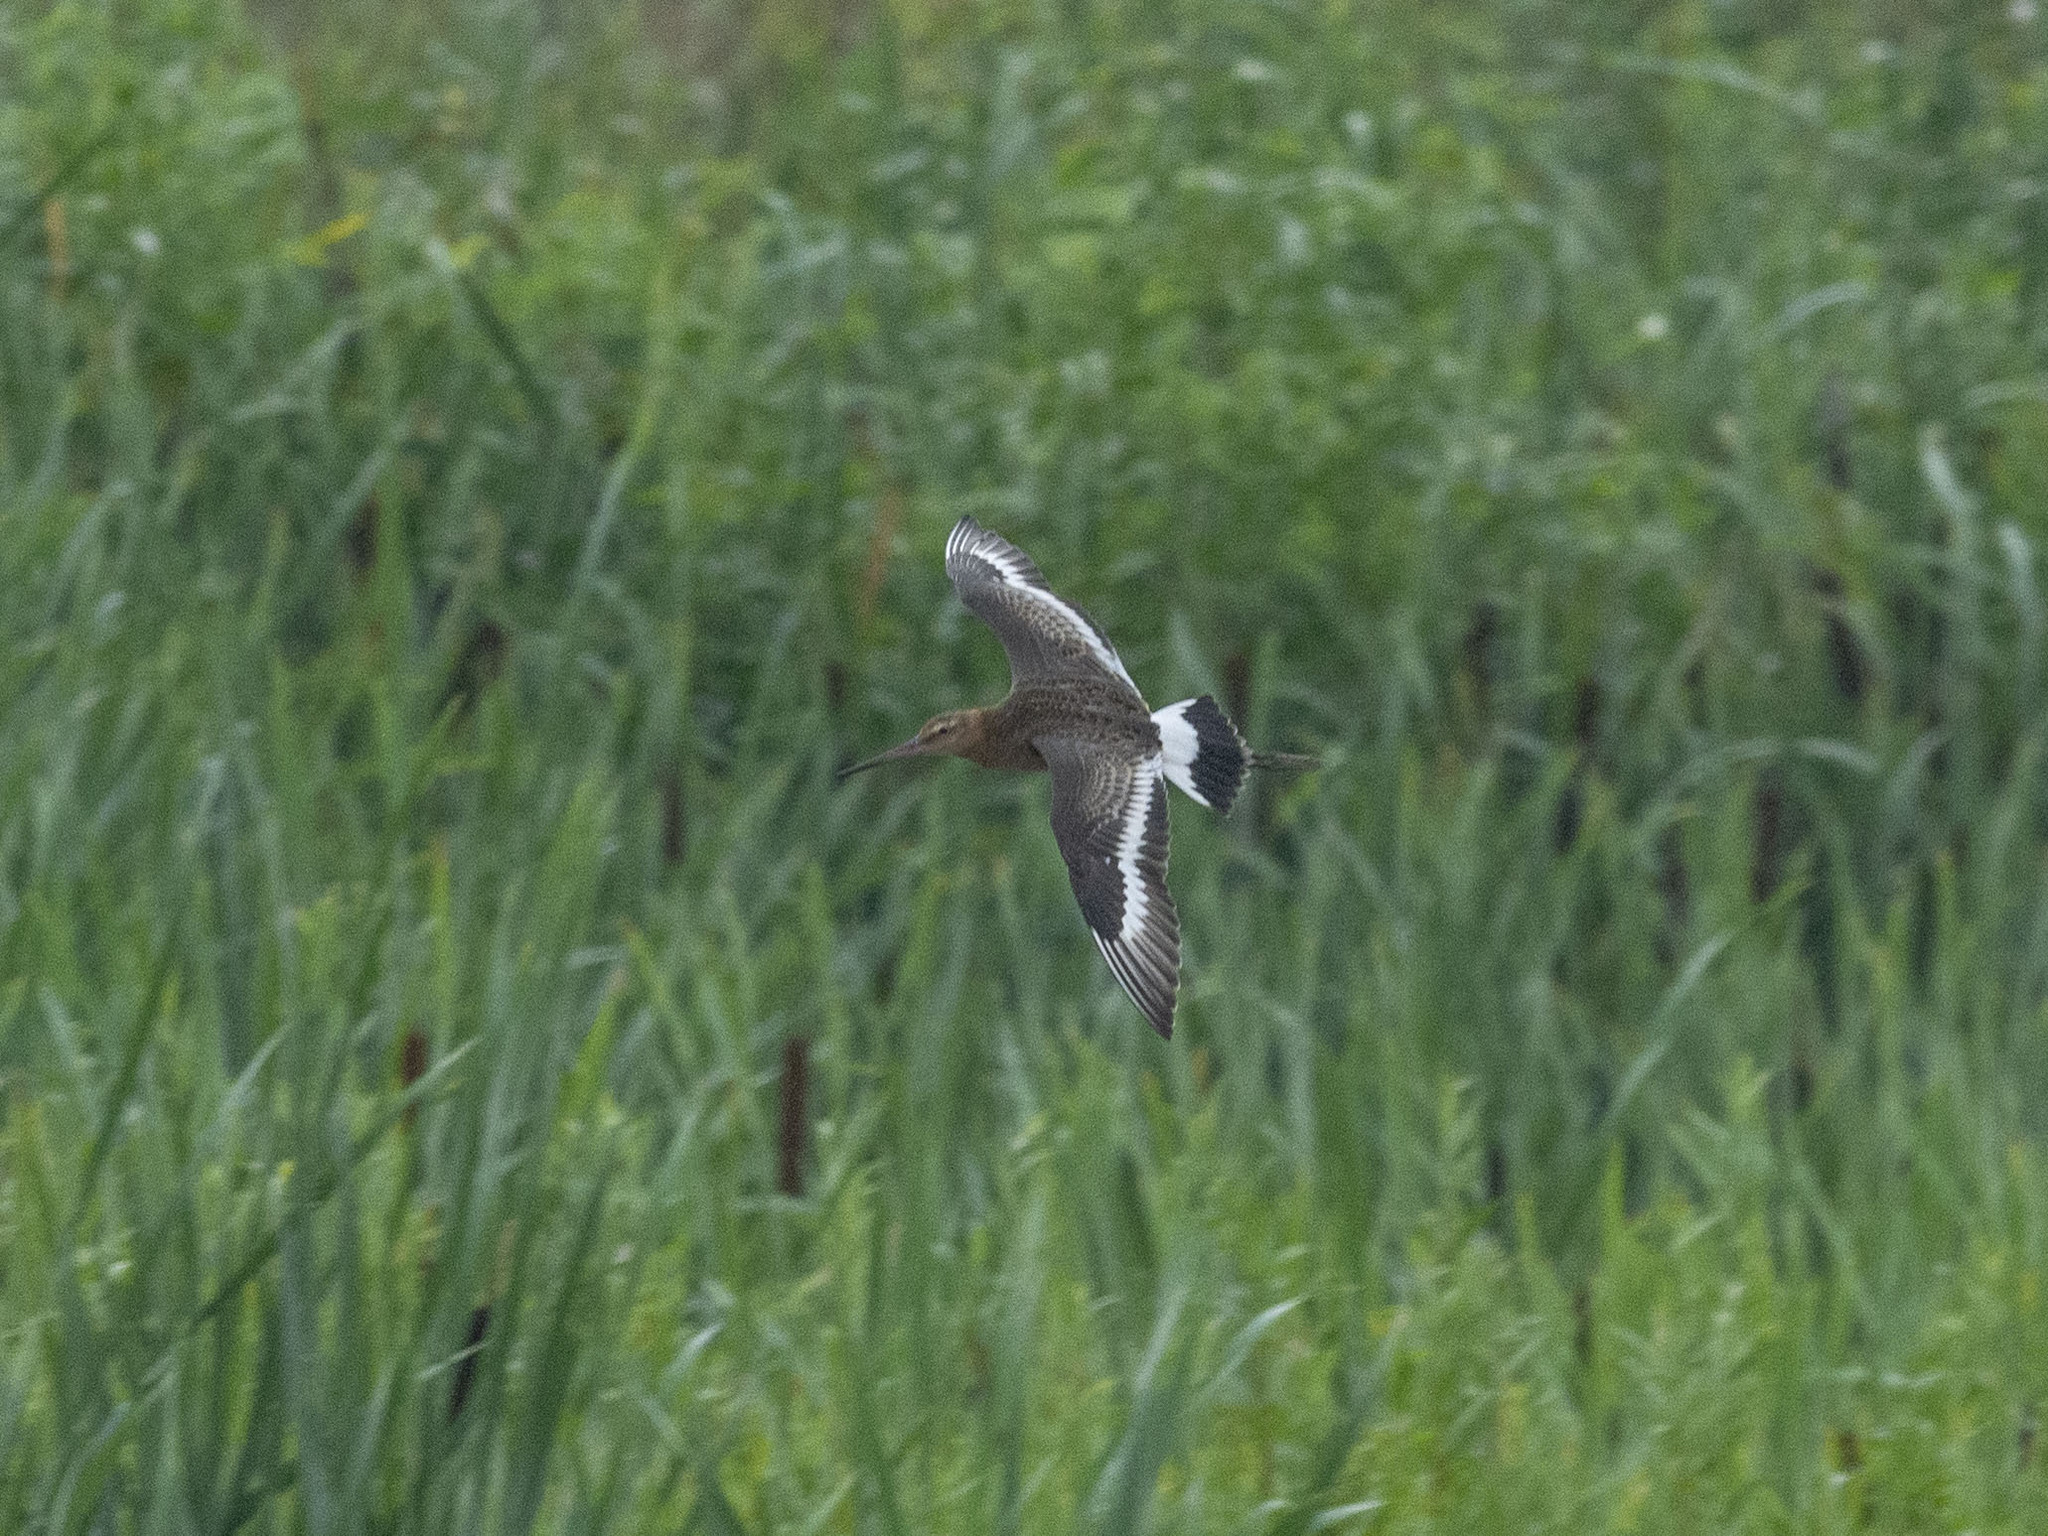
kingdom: Animalia
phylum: Chordata
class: Aves
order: Charadriiformes
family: Scolopacidae
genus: Limosa
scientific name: Limosa limosa
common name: Black-tailed godwit
